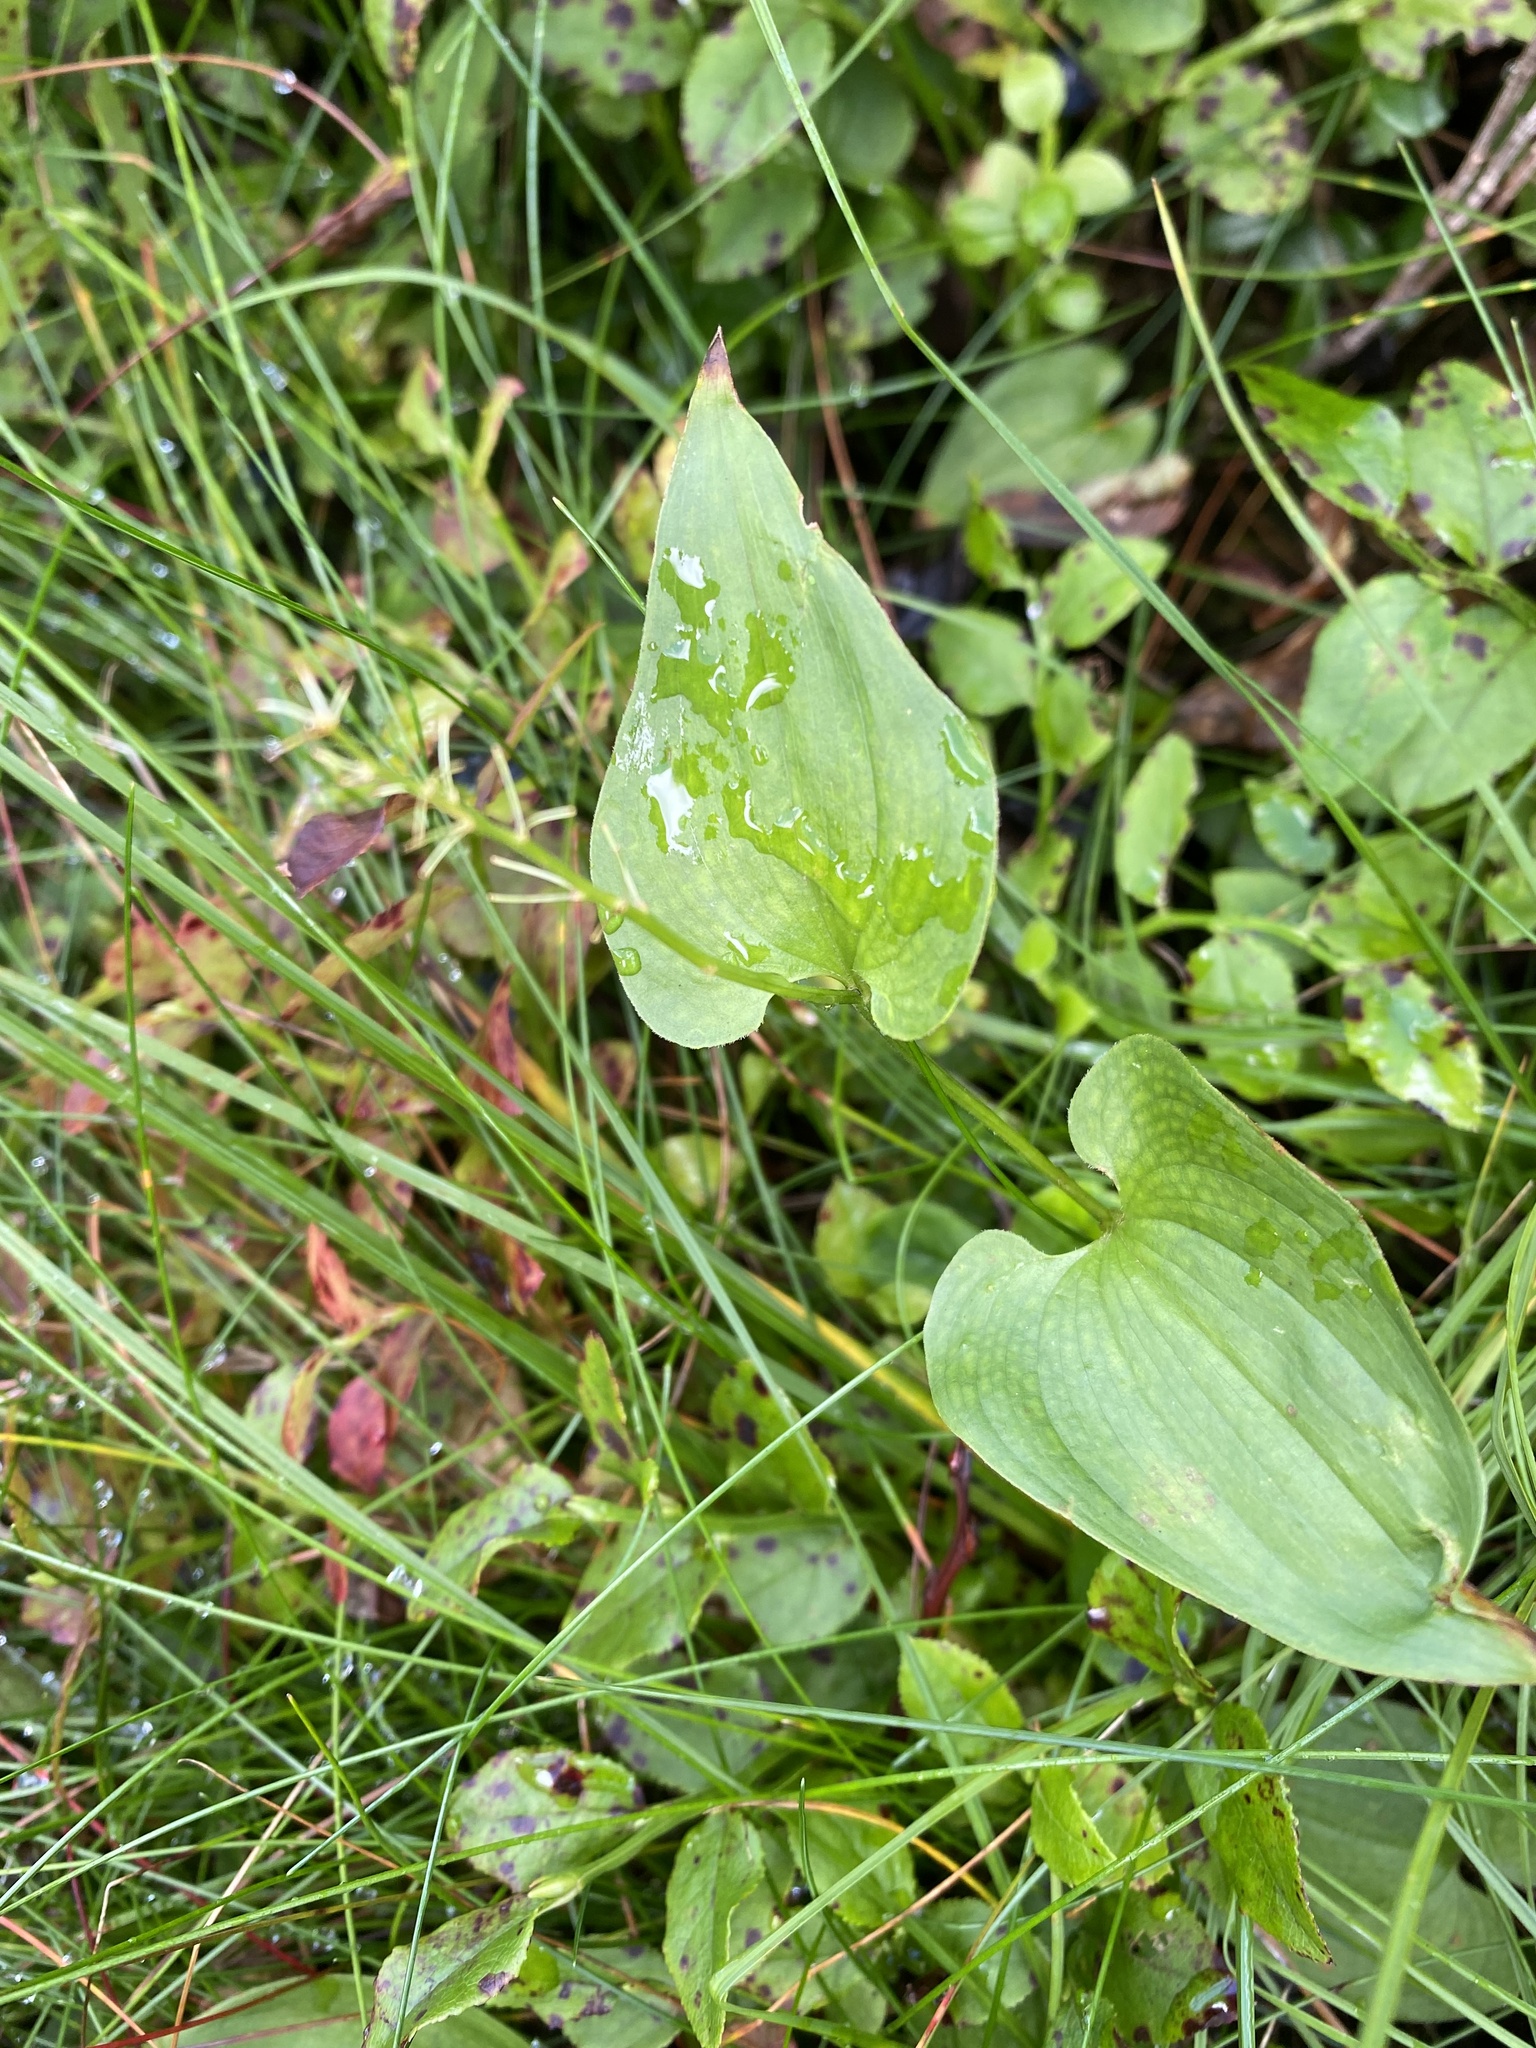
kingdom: Plantae
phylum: Tracheophyta
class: Liliopsida
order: Asparagales
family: Asparagaceae
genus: Maianthemum
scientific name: Maianthemum bifolium
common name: May lily
